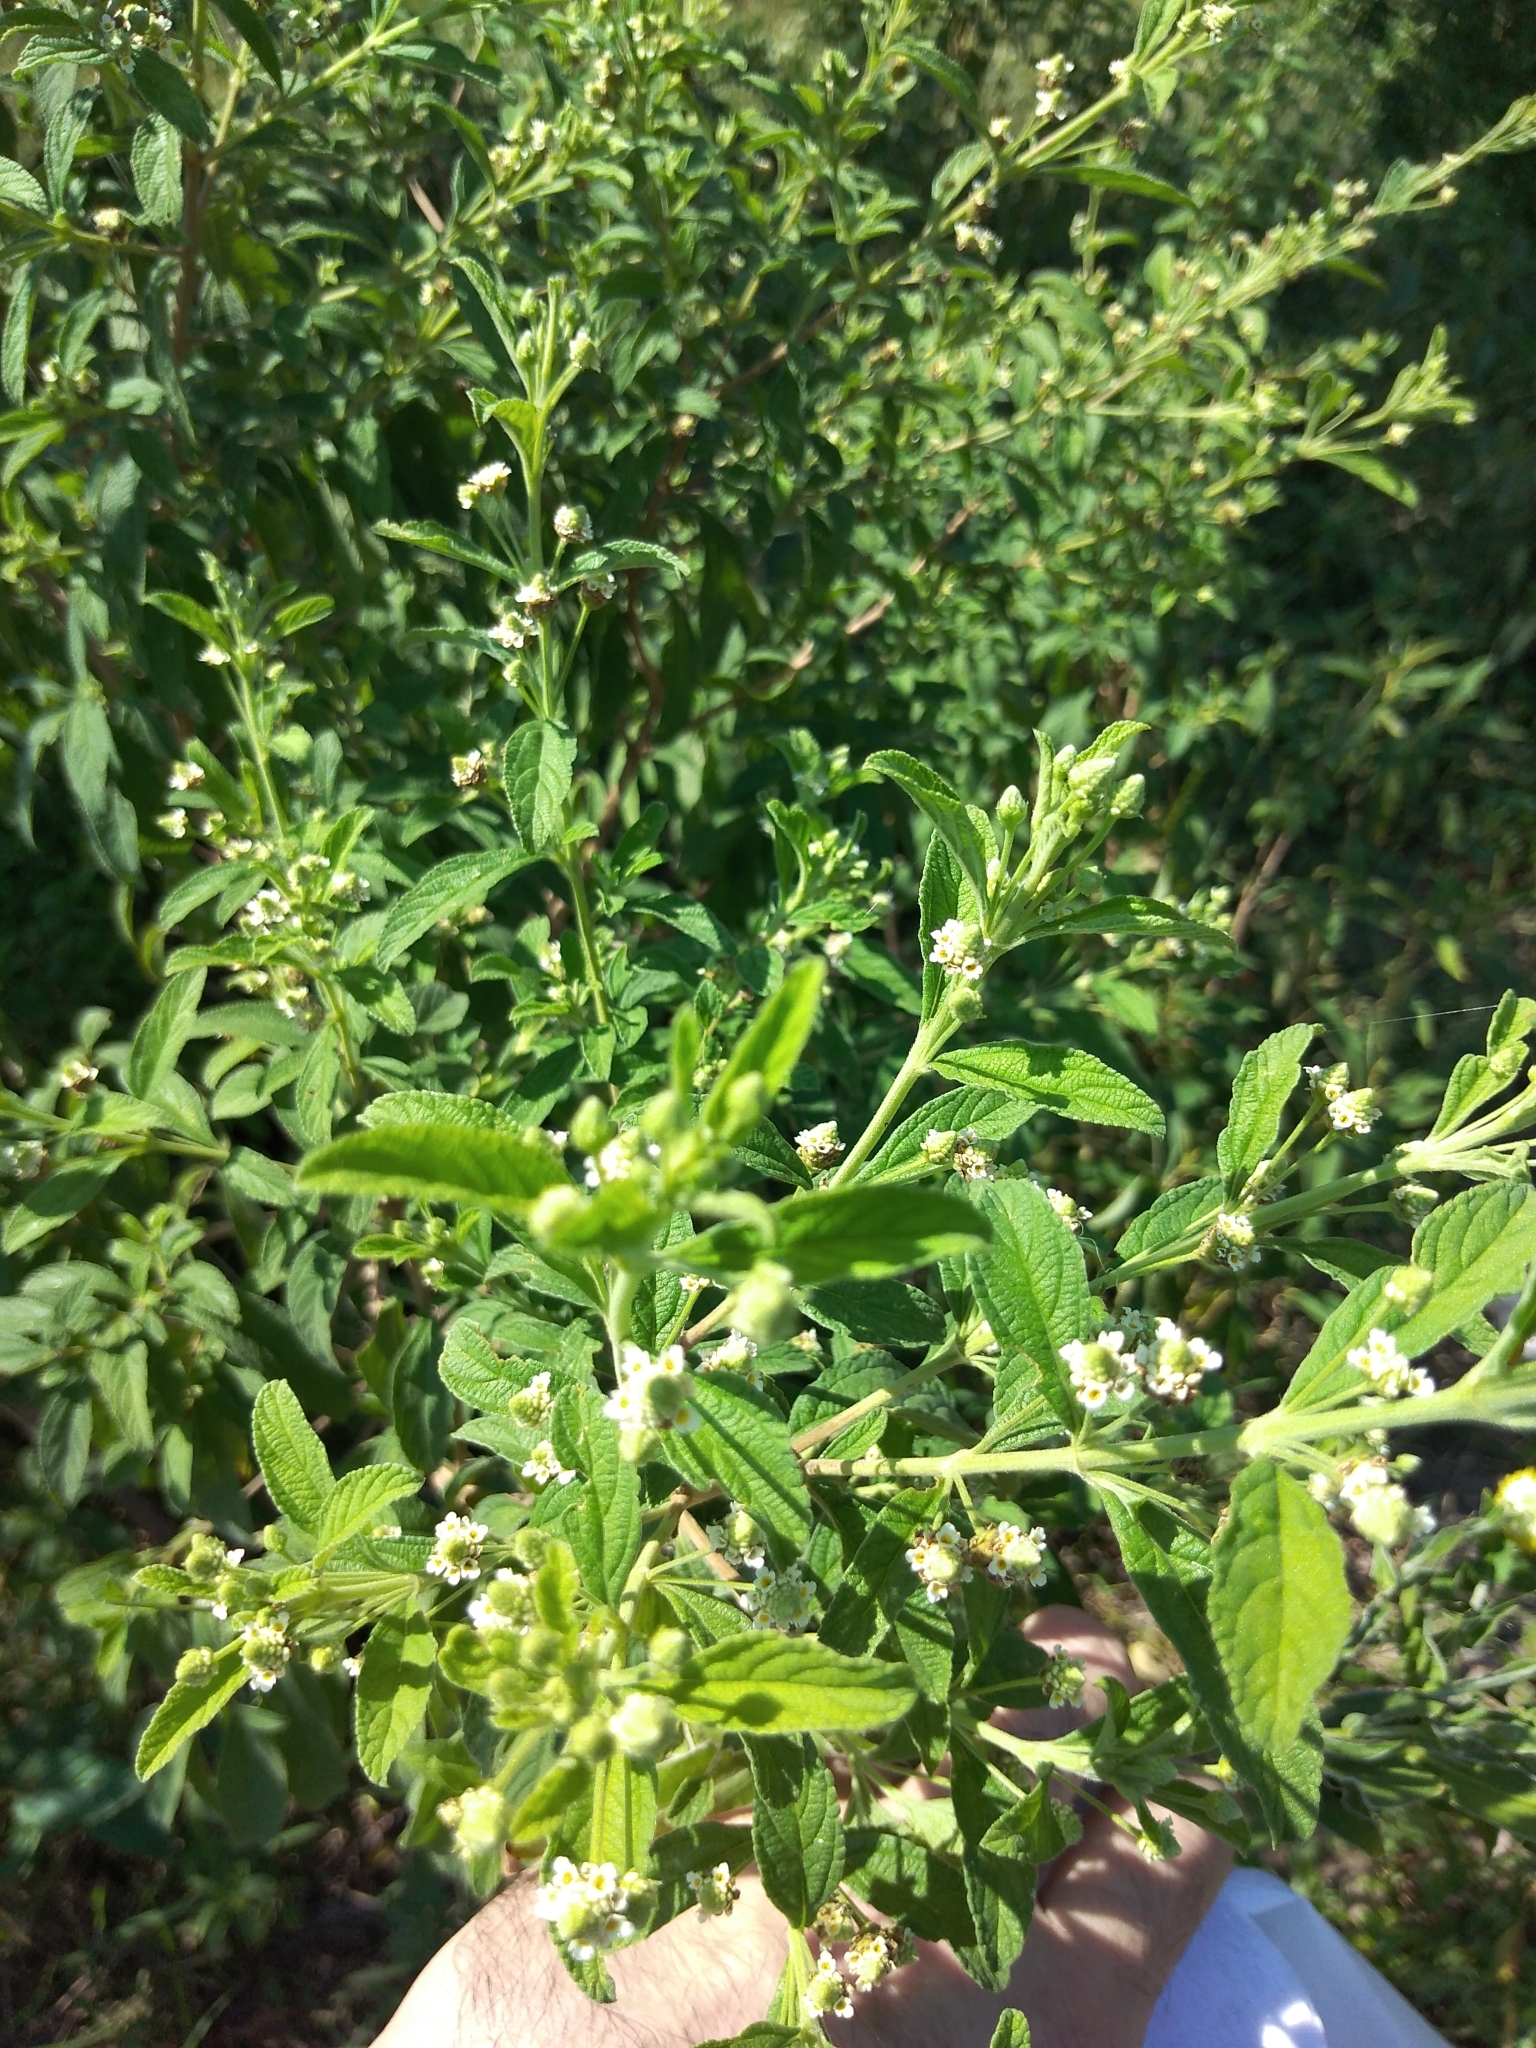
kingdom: Plantae
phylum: Tracheophyta
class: Magnoliopsida
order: Lamiales
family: Verbenaceae
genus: Lippia
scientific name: Lippia javanica
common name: Lemonbush
